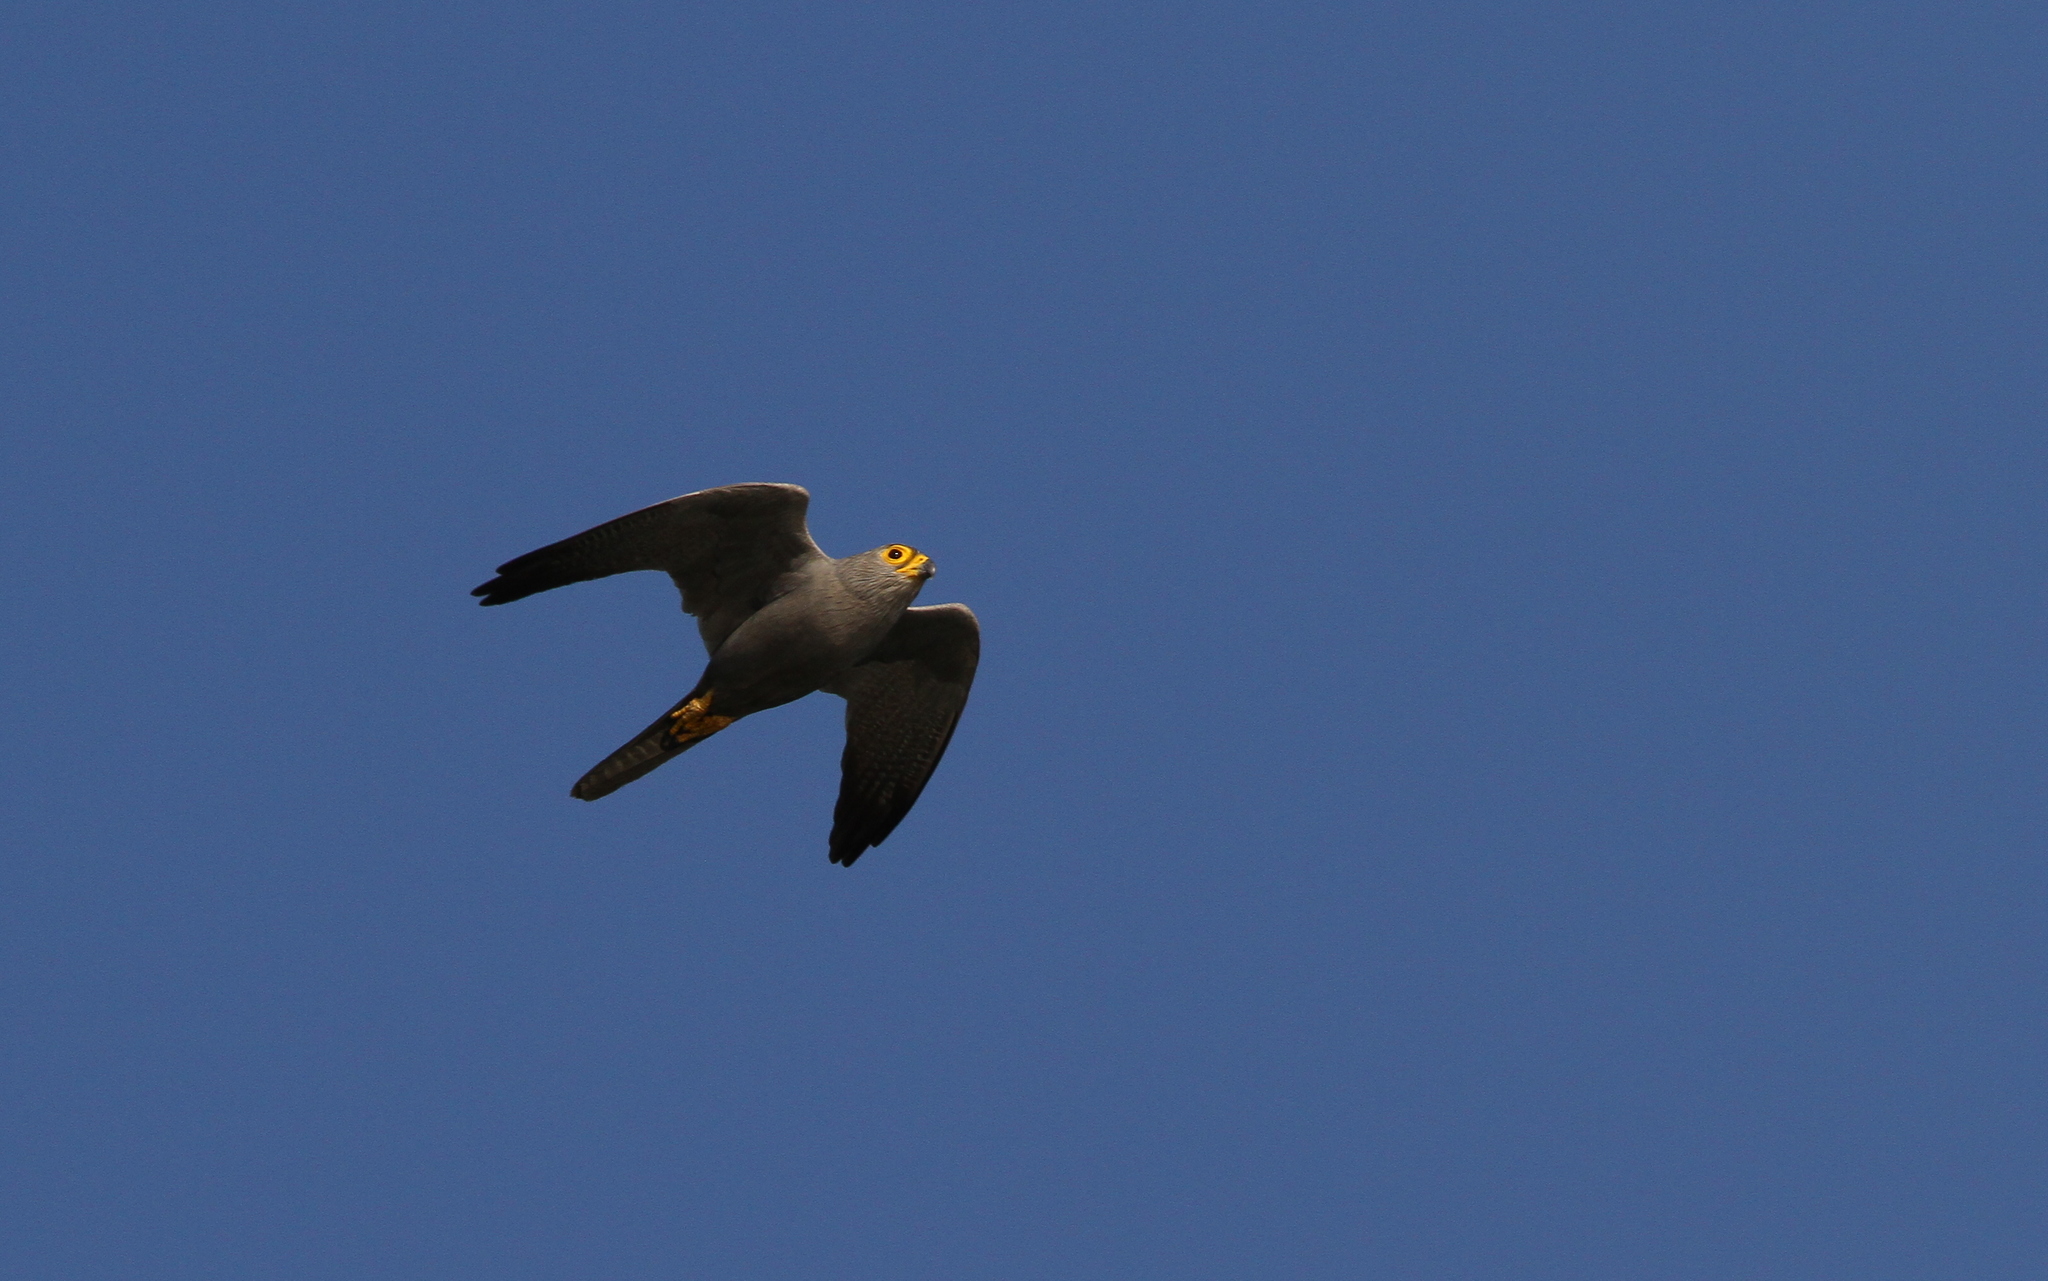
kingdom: Animalia
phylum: Chordata
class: Aves
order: Falconiformes
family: Falconidae
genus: Falco
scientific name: Falco ardosiaceus
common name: Grey kestrel
